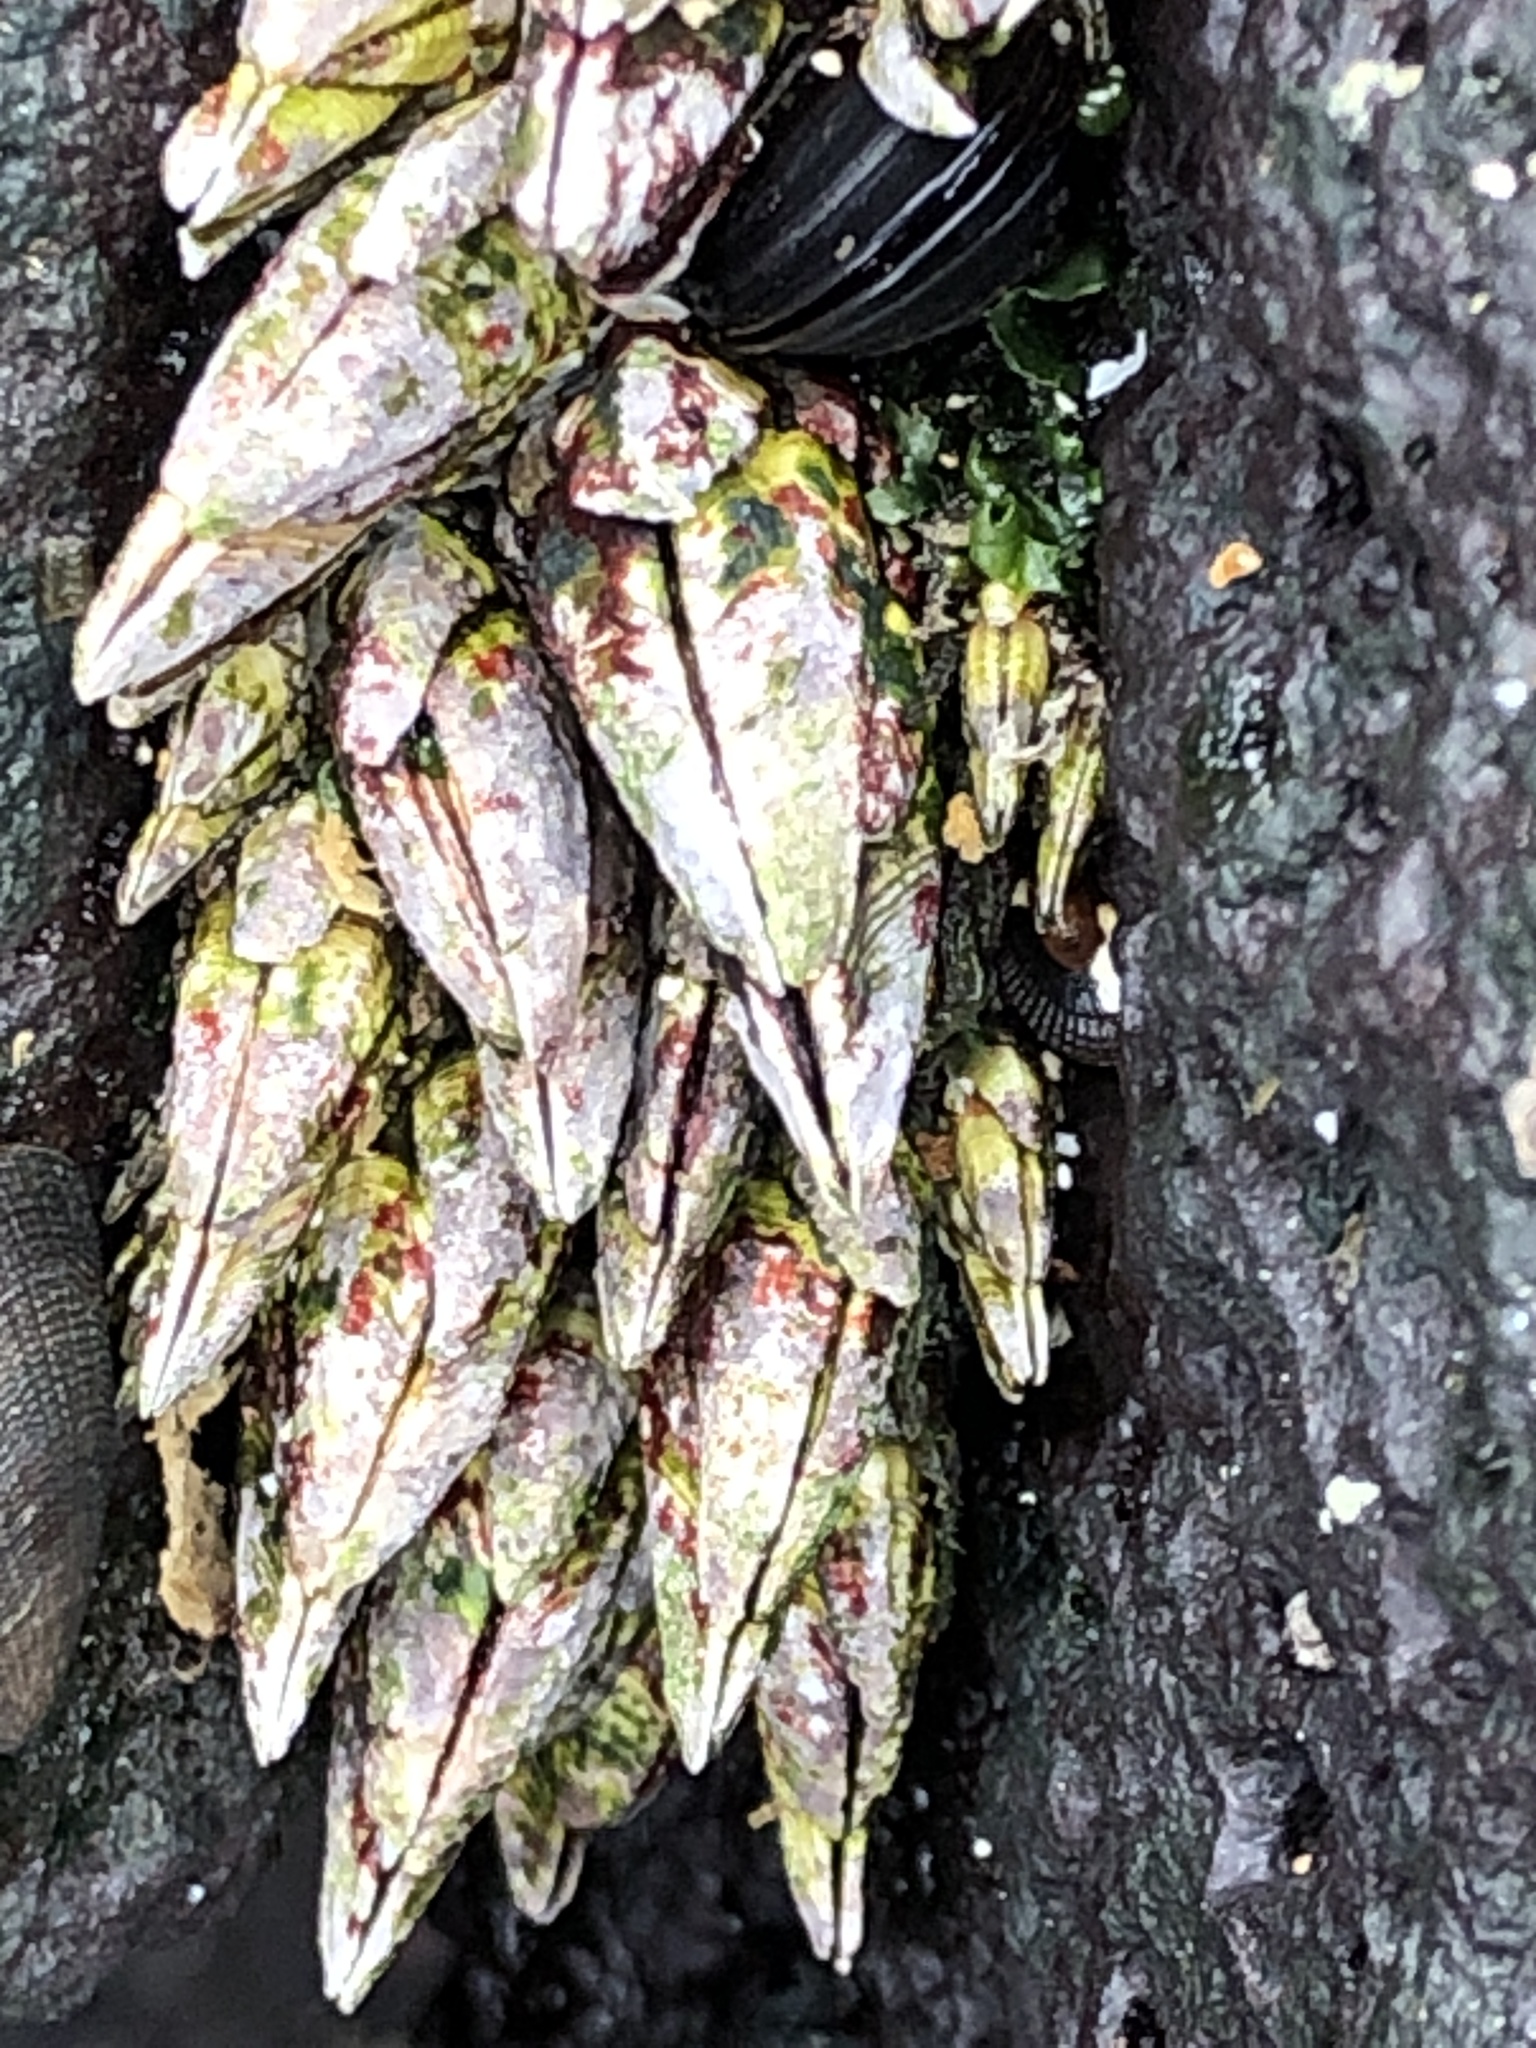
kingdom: Animalia
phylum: Arthropoda
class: Maxillopoda
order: Pedunculata
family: Pollicipedidae
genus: Capitulum
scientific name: Capitulum mitella
